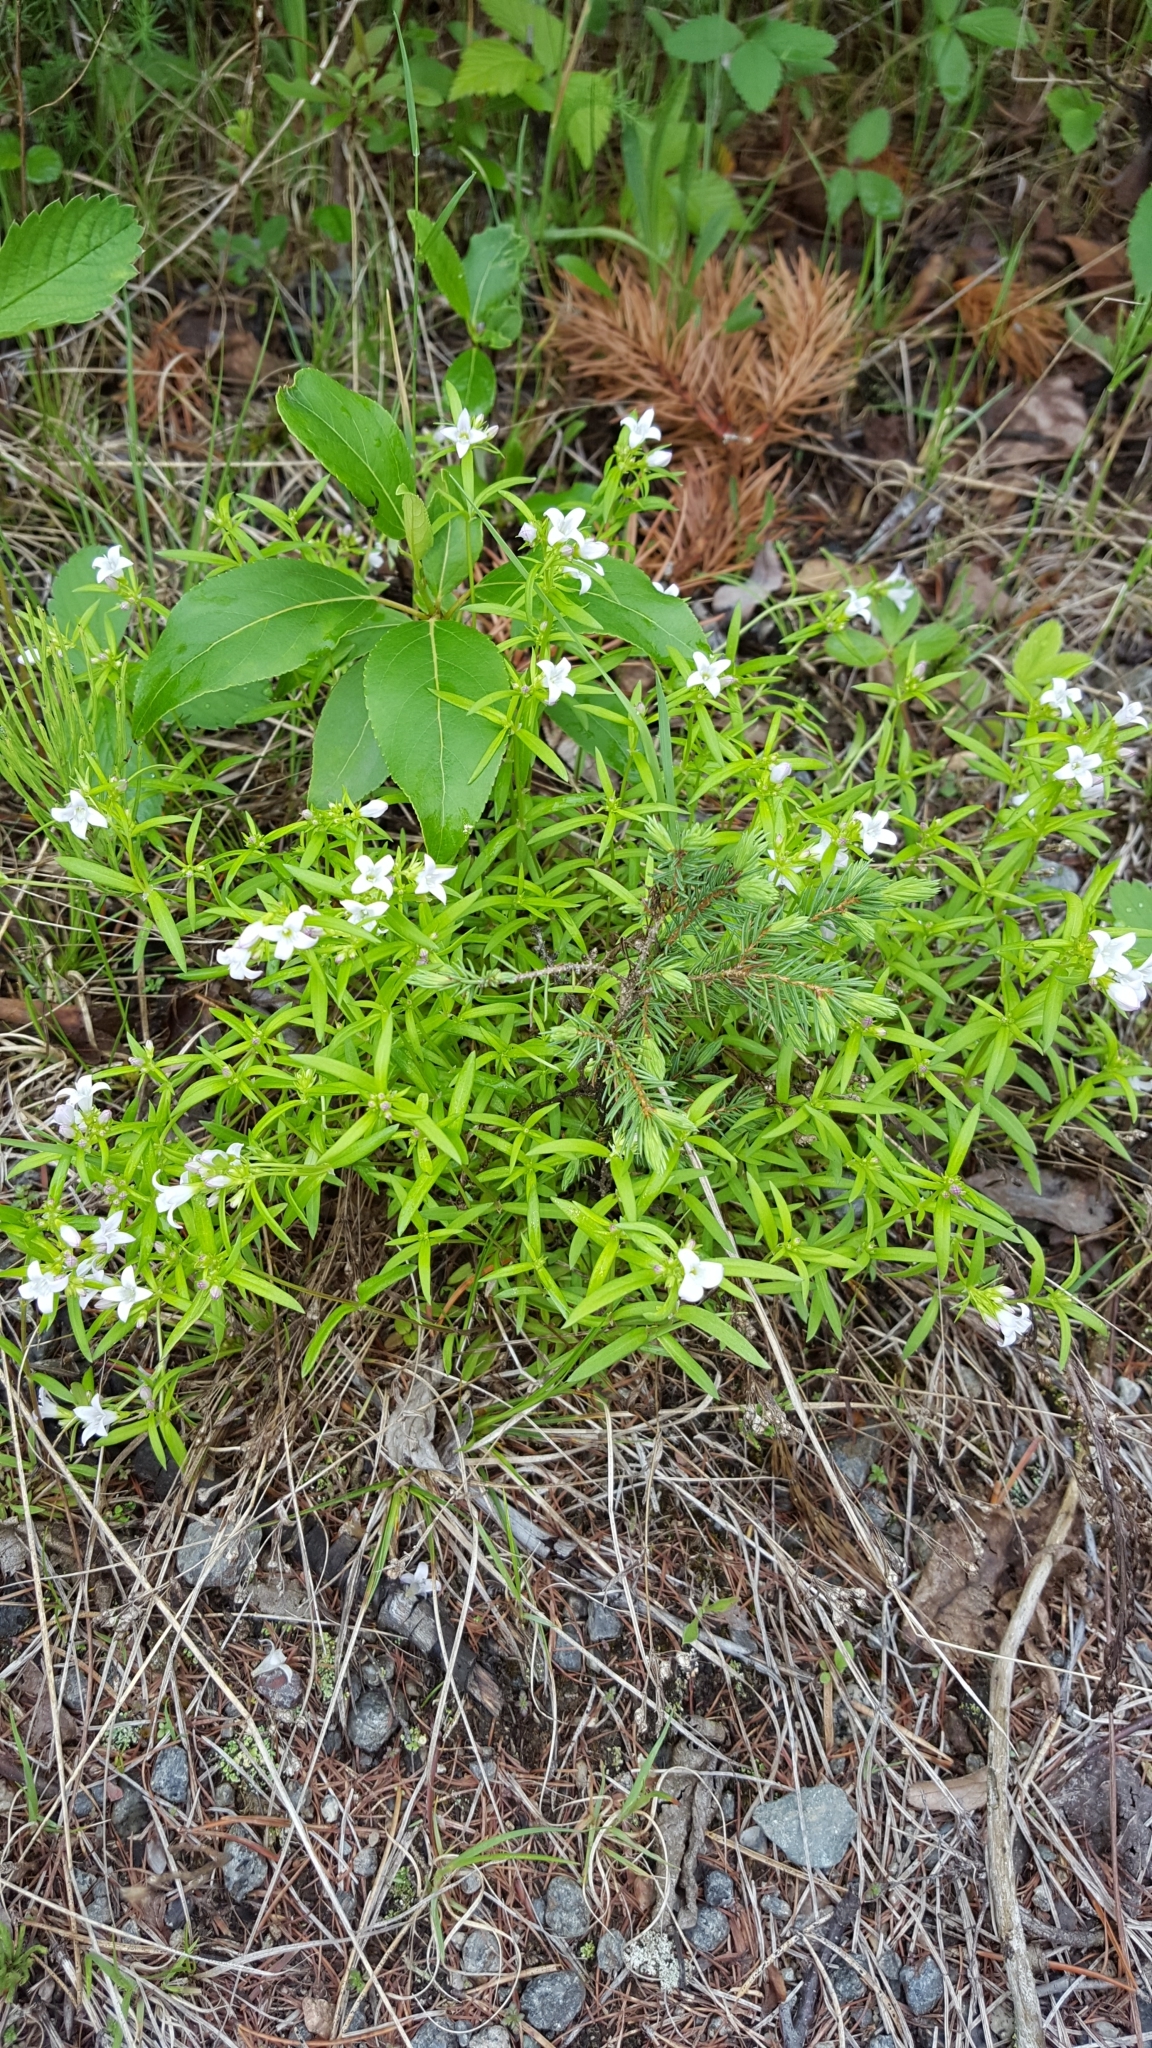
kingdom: Plantae
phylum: Tracheophyta
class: Magnoliopsida
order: Gentianales
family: Rubiaceae
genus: Houstonia
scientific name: Houstonia longifolia
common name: Long-leaved bluets
